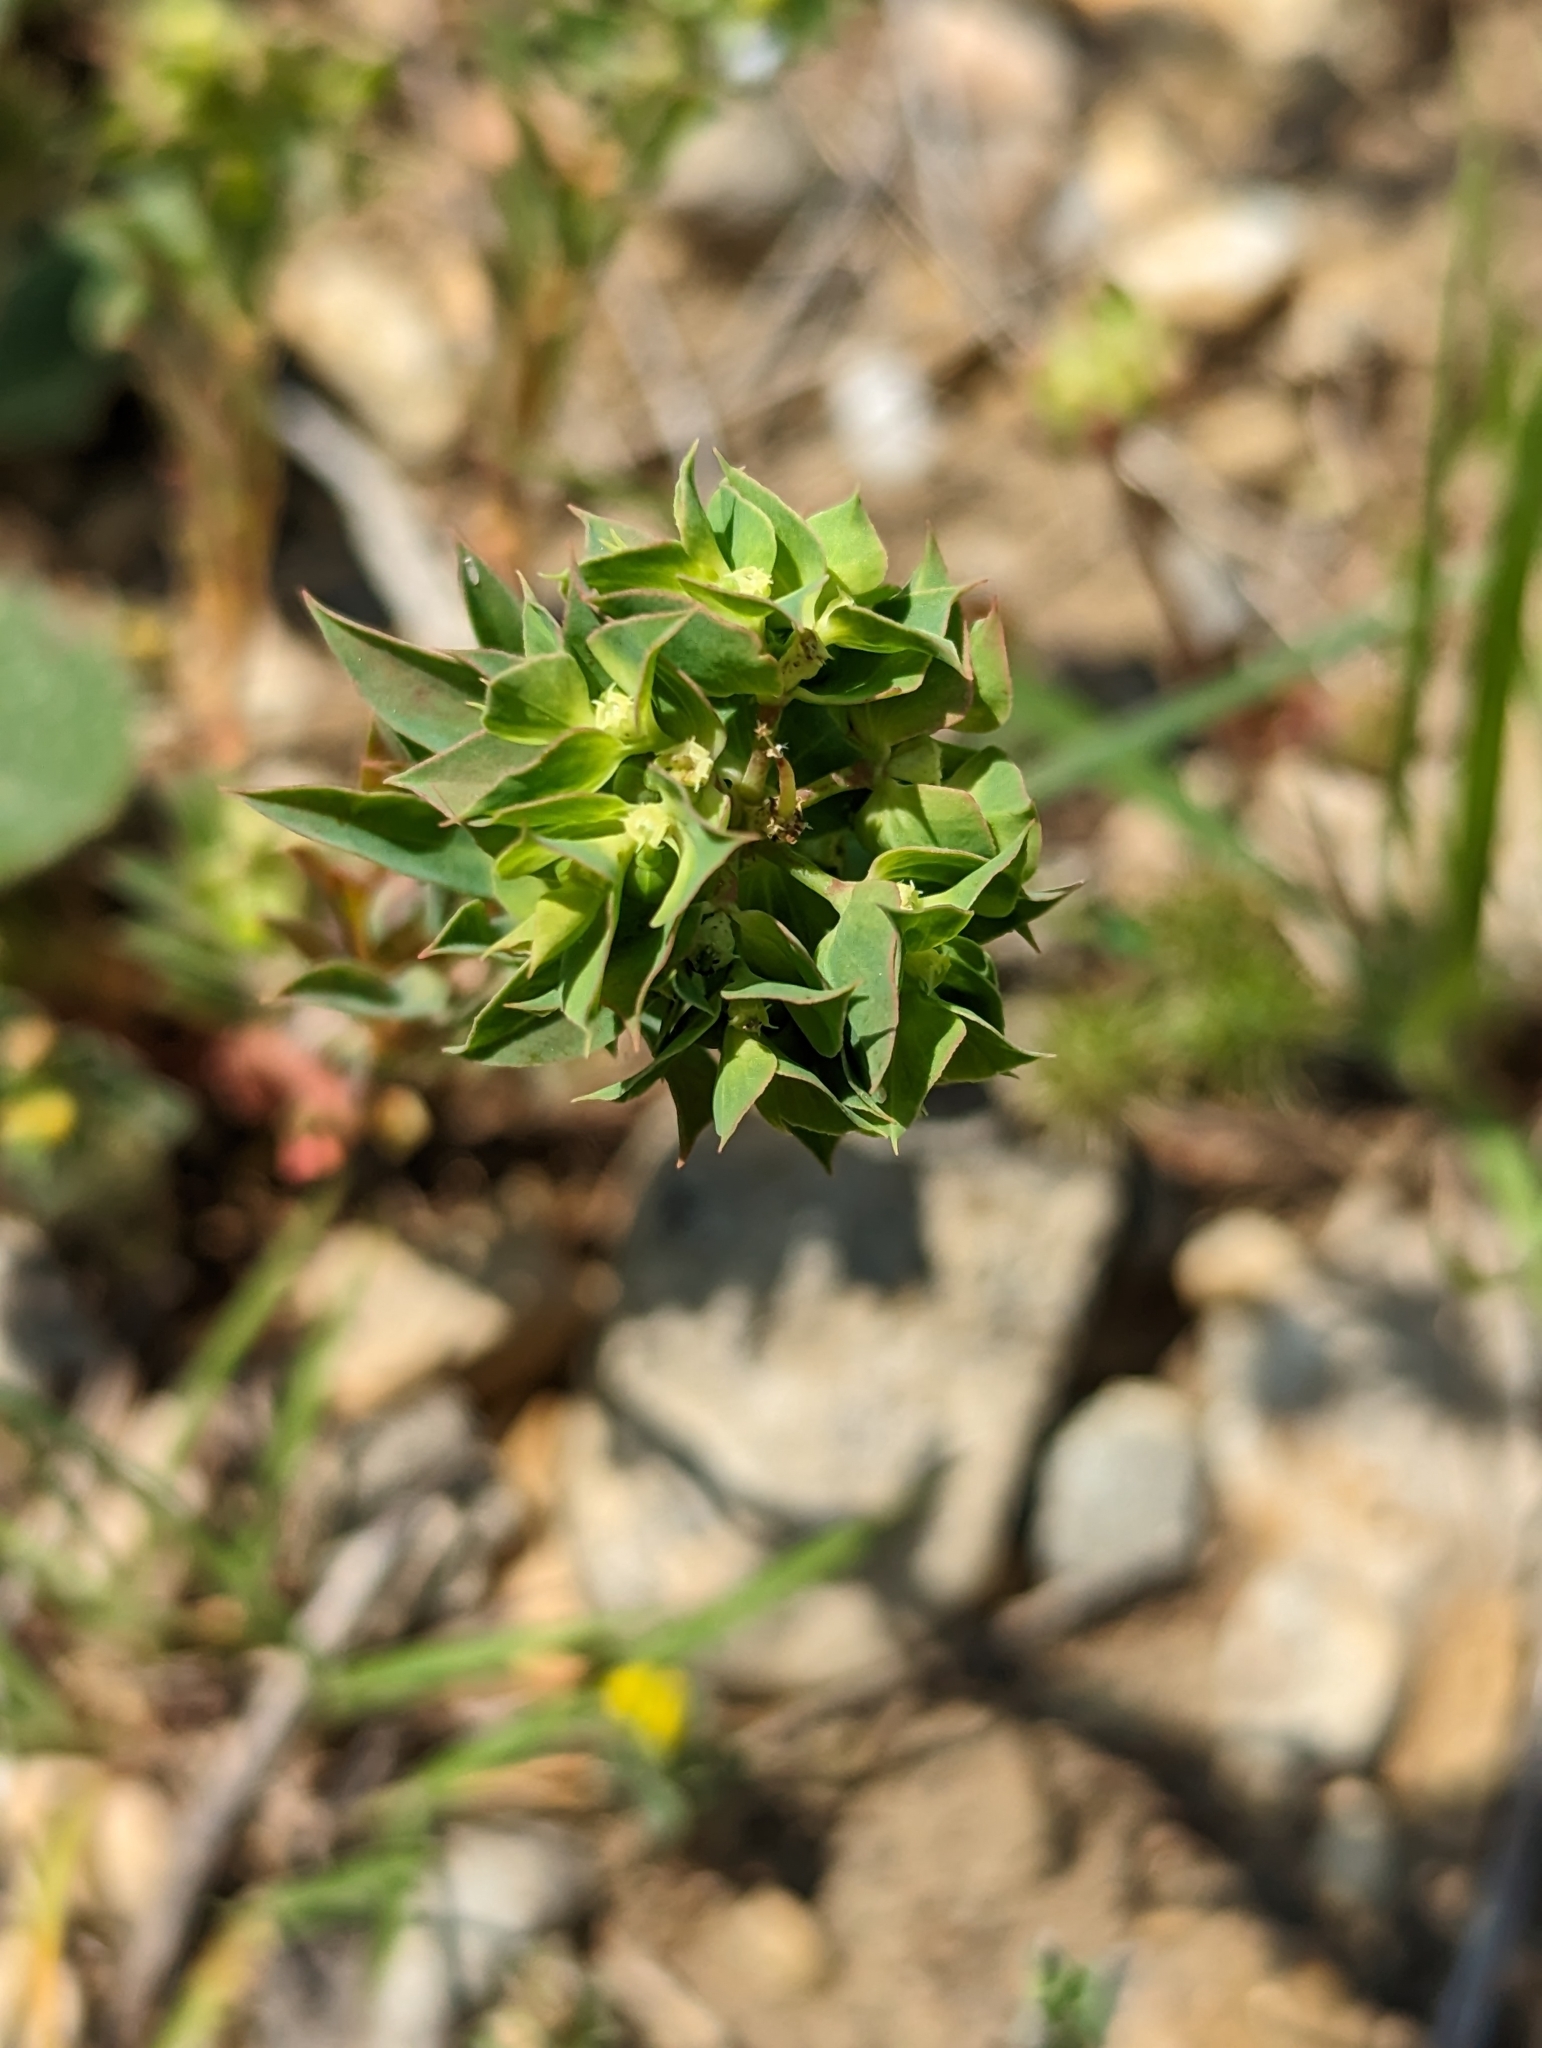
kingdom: Plantae
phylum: Tracheophyta
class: Magnoliopsida
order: Malpighiales
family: Euphorbiaceae
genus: Euphorbia
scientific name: Euphorbia falcata
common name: Sickle spurge
